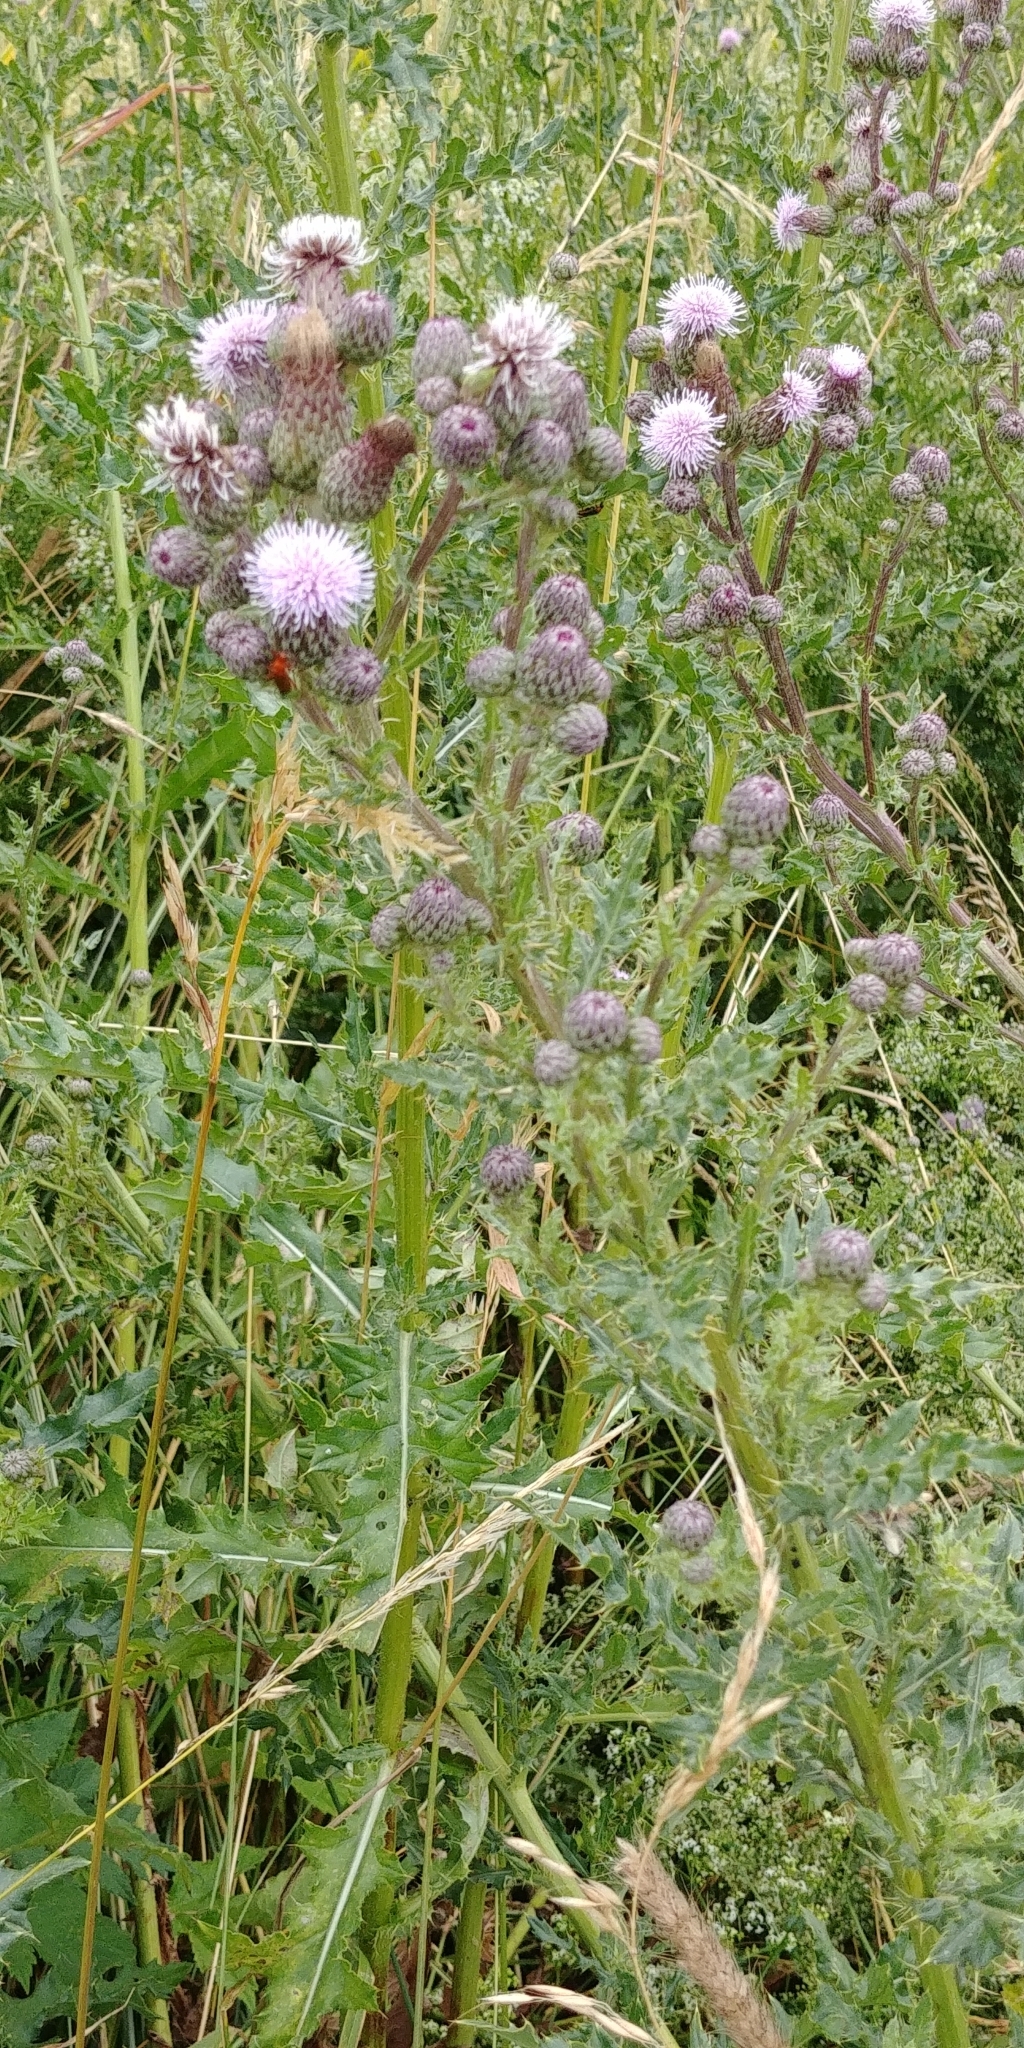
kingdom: Plantae
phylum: Tracheophyta
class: Magnoliopsida
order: Asterales
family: Asteraceae
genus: Cirsium
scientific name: Cirsium arvense
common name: Creeping thistle
